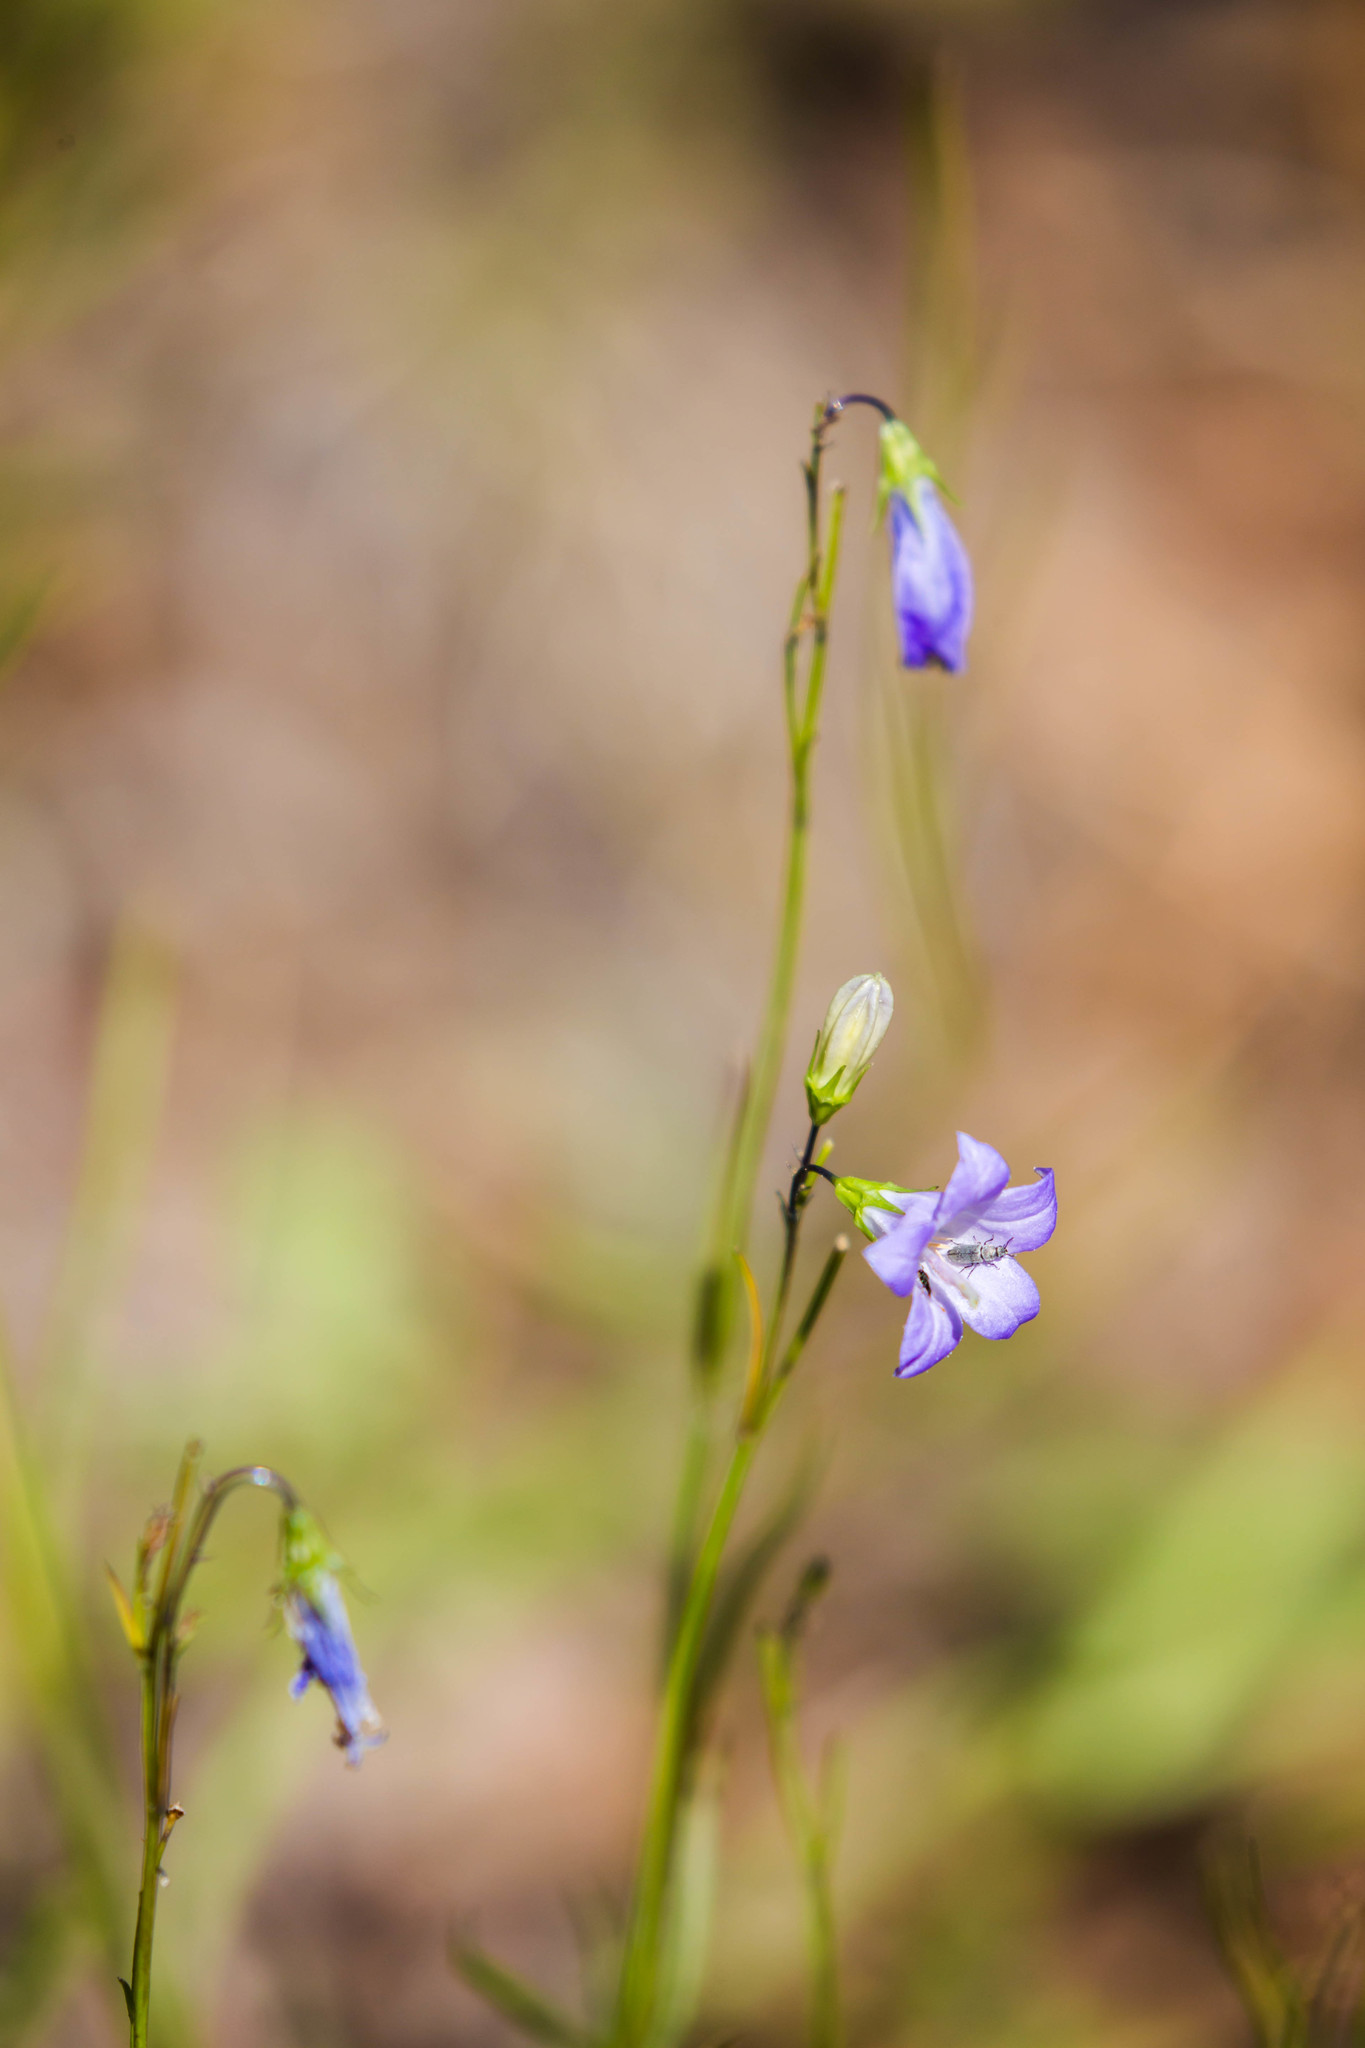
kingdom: Plantae
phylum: Tracheophyta
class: Magnoliopsida
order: Asterales
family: Campanulaceae
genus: Campanula
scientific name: Campanula petiolata
